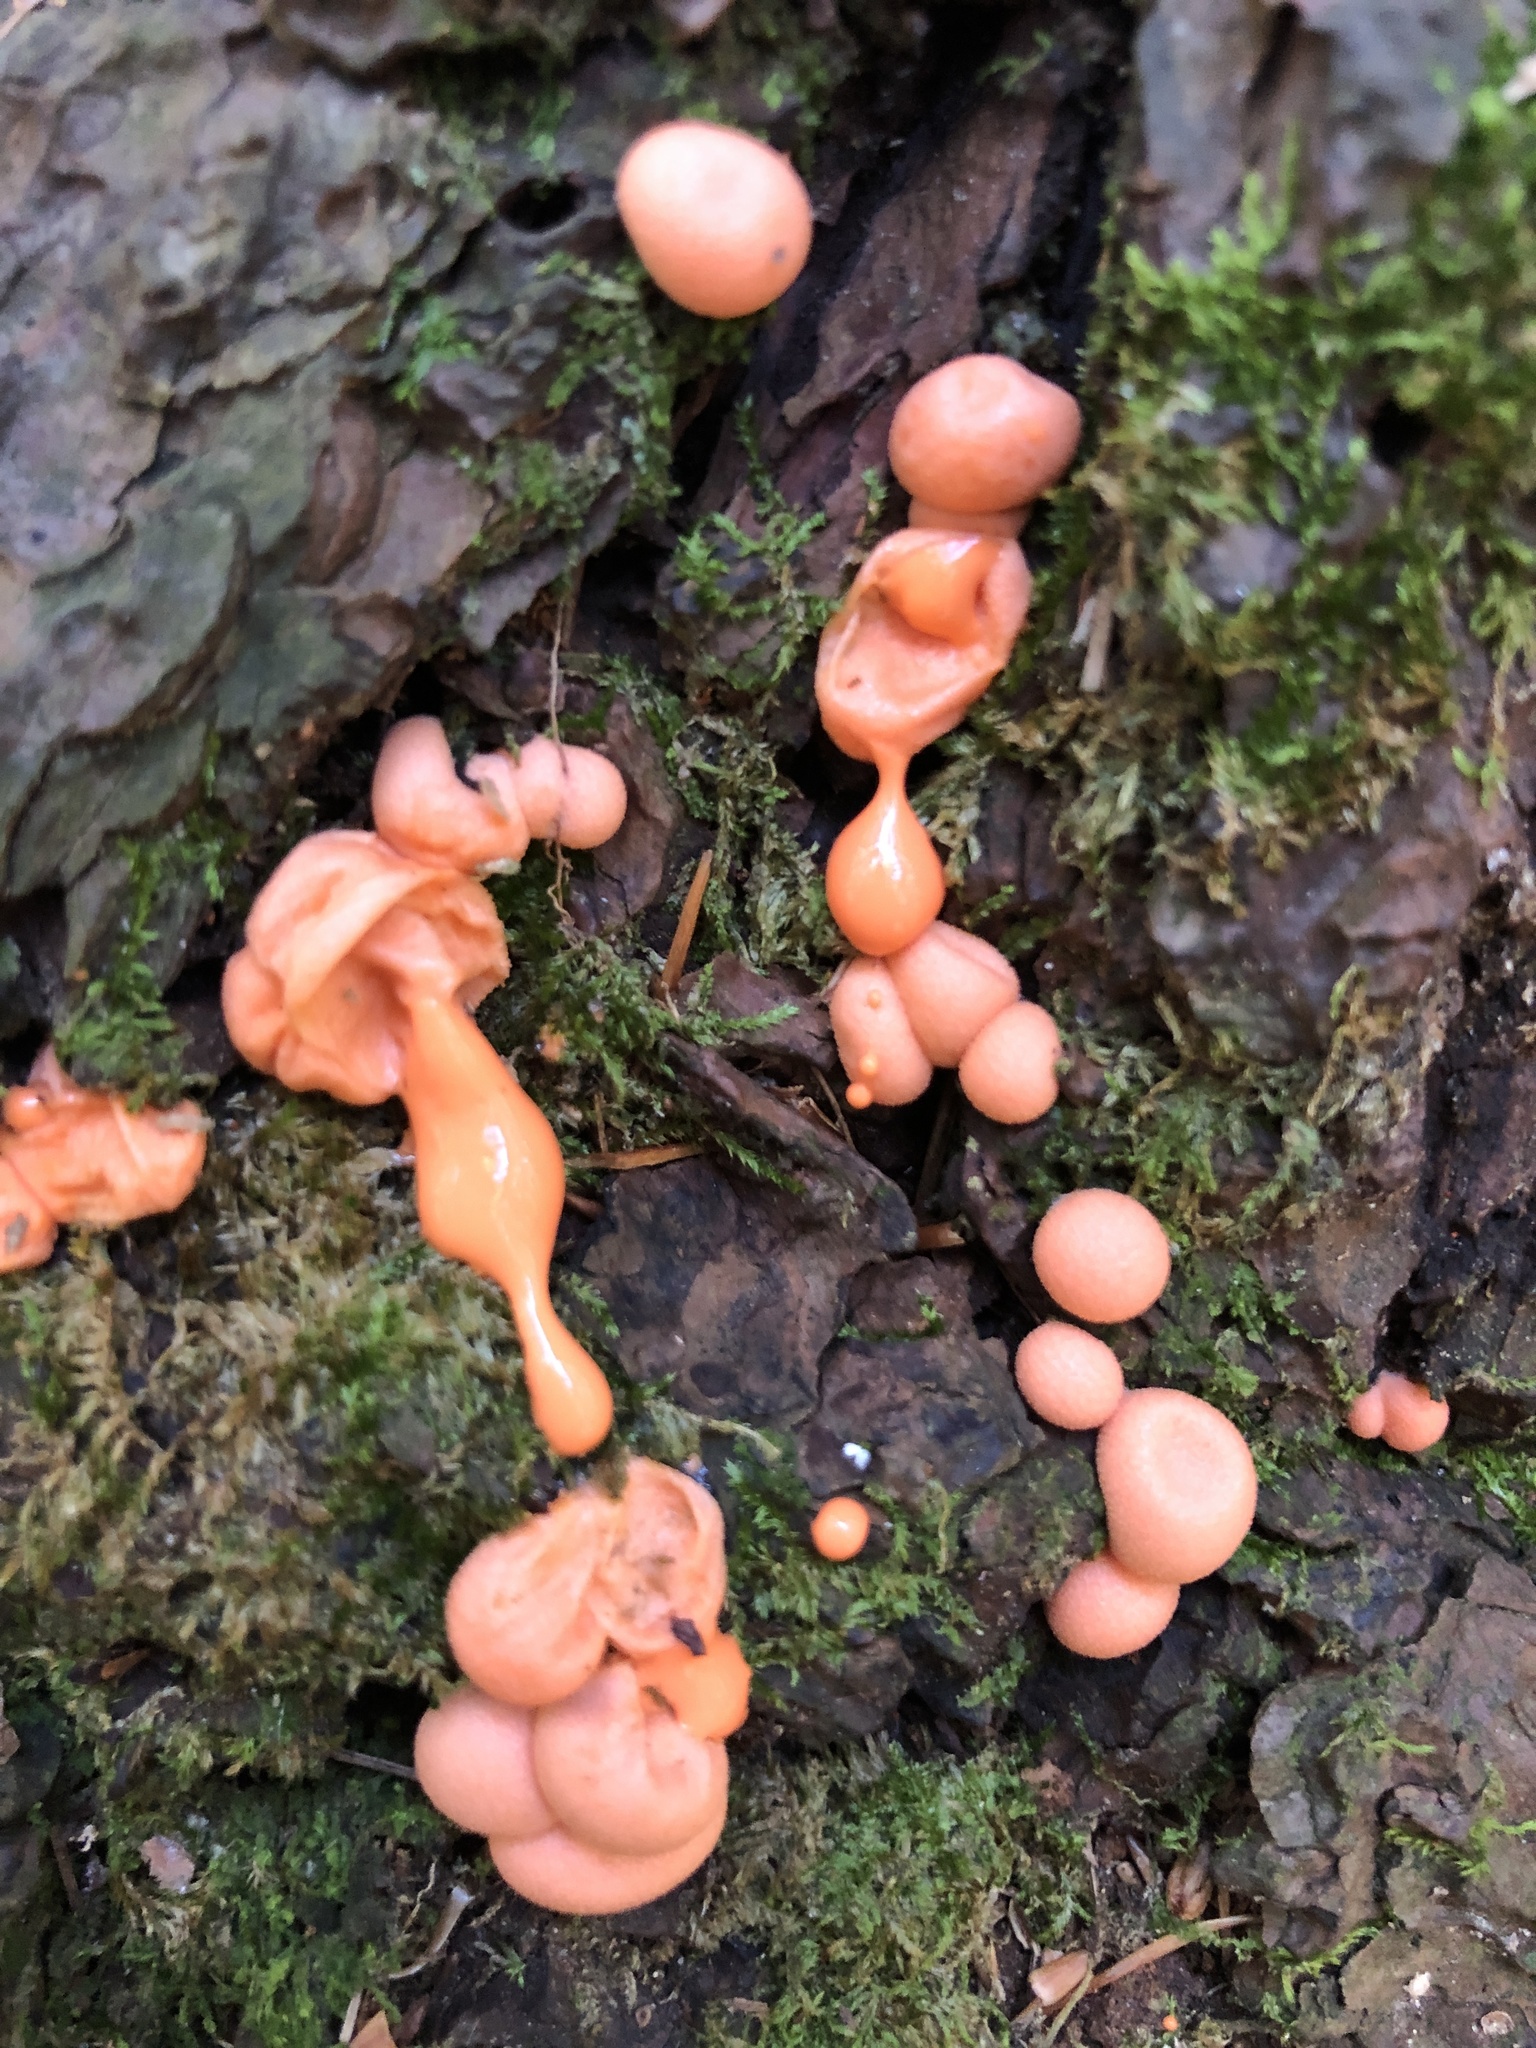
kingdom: Protozoa
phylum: Mycetozoa
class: Myxomycetes
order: Cribrariales
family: Tubiferaceae
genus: Lycogala
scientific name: Lycogala epidendrum
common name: Wolf's milk
